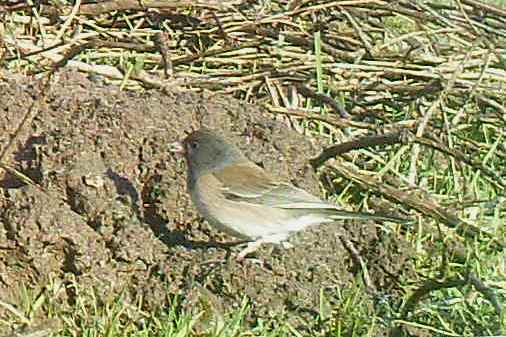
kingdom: Animalia
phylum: Chordata
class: Aves
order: Passeriformes
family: Passerellidae
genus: Junco
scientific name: Junco hyemalis
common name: Dark-eyed junco
